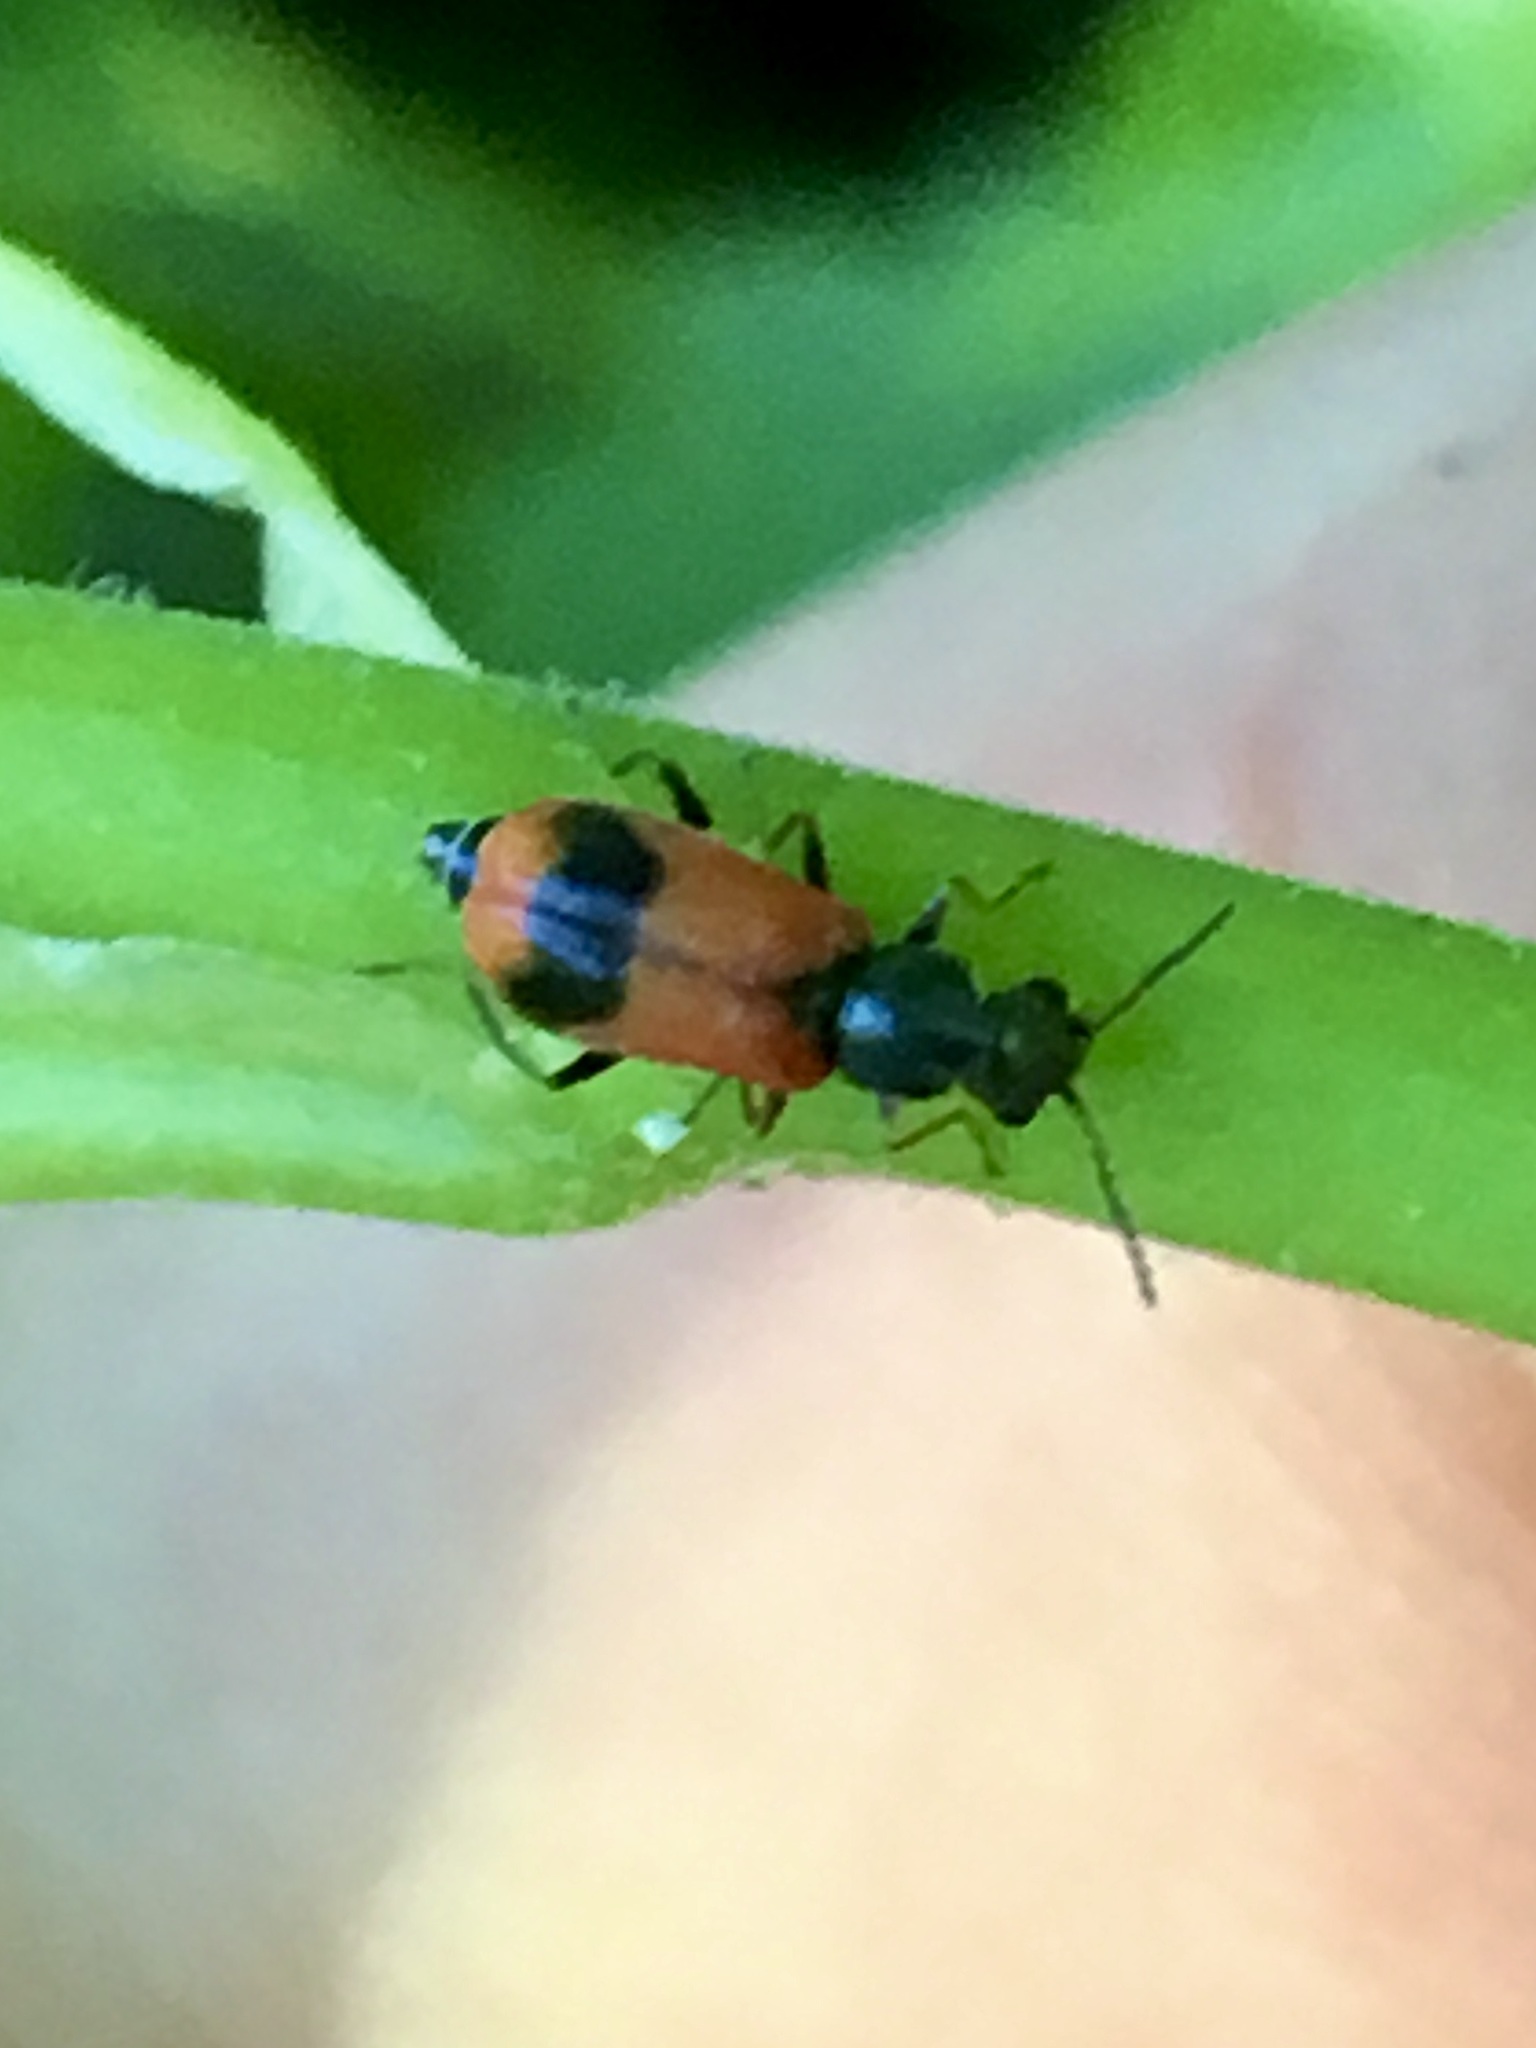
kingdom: Animalia
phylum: Arthropoda
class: Insecta
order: Coleoptera
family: Melyridae
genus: Anthocomus
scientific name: Anthocomus equestris
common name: Black-banded soft-winged flower beetle
